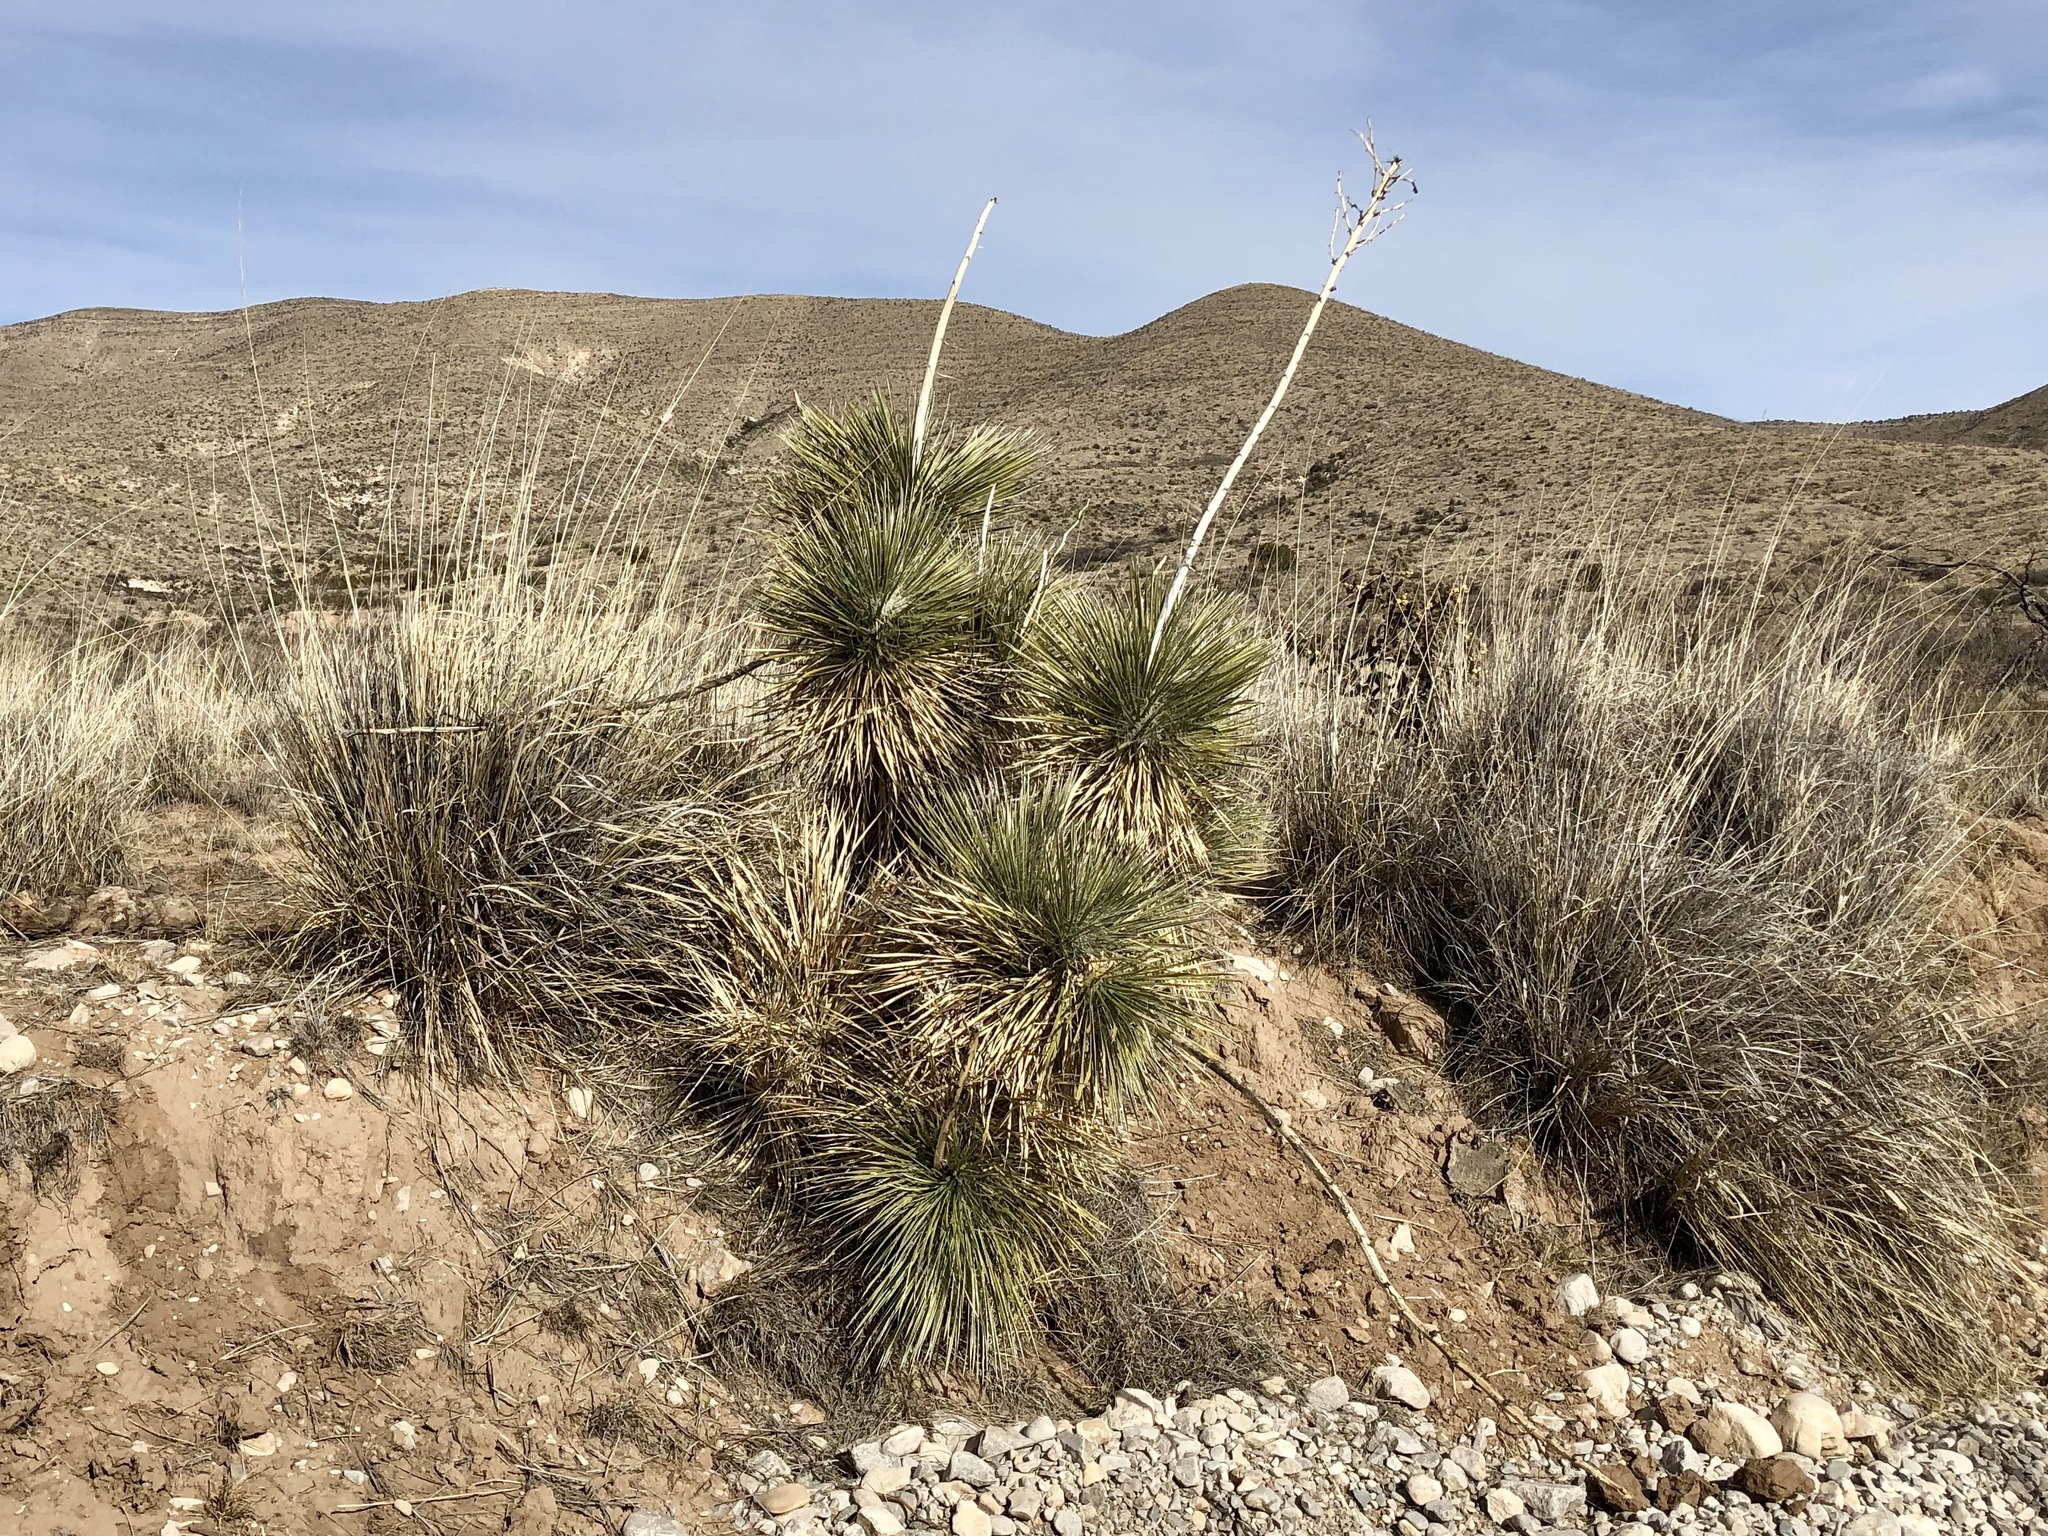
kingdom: Plantae
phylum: Tracheophyta
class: Liliopsida
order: Asparagales
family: Asparagaceae
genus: Yucca
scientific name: Yucca elata
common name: Palmella
